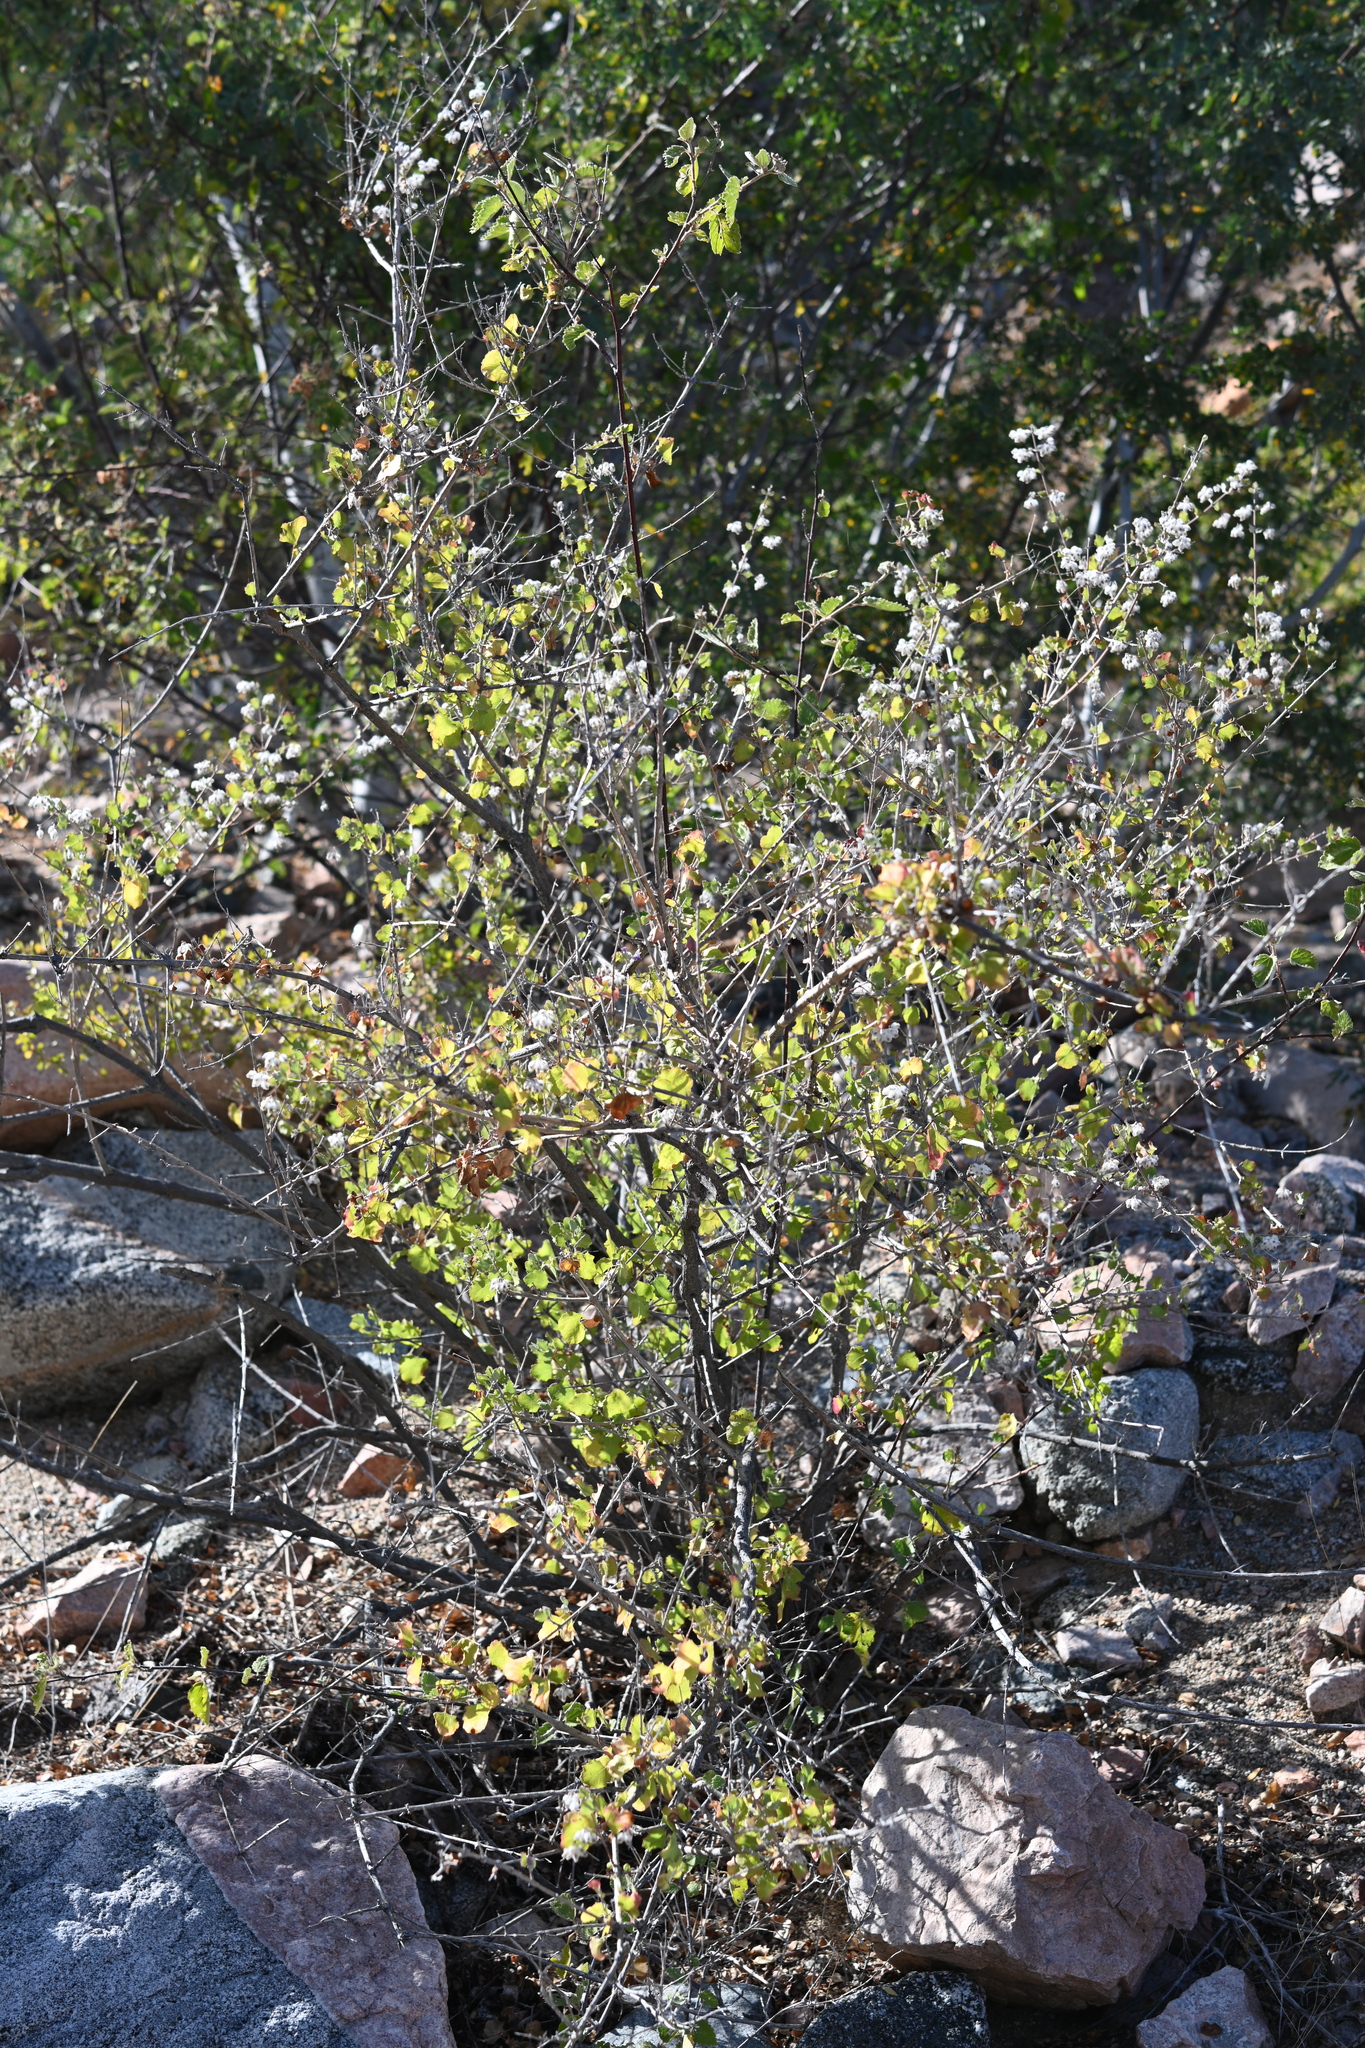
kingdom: Plantae
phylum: Tracheophyta
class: Magnoliopsida
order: Lamiales
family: Lamiaceae
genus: Condea
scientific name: Condea laniflora
